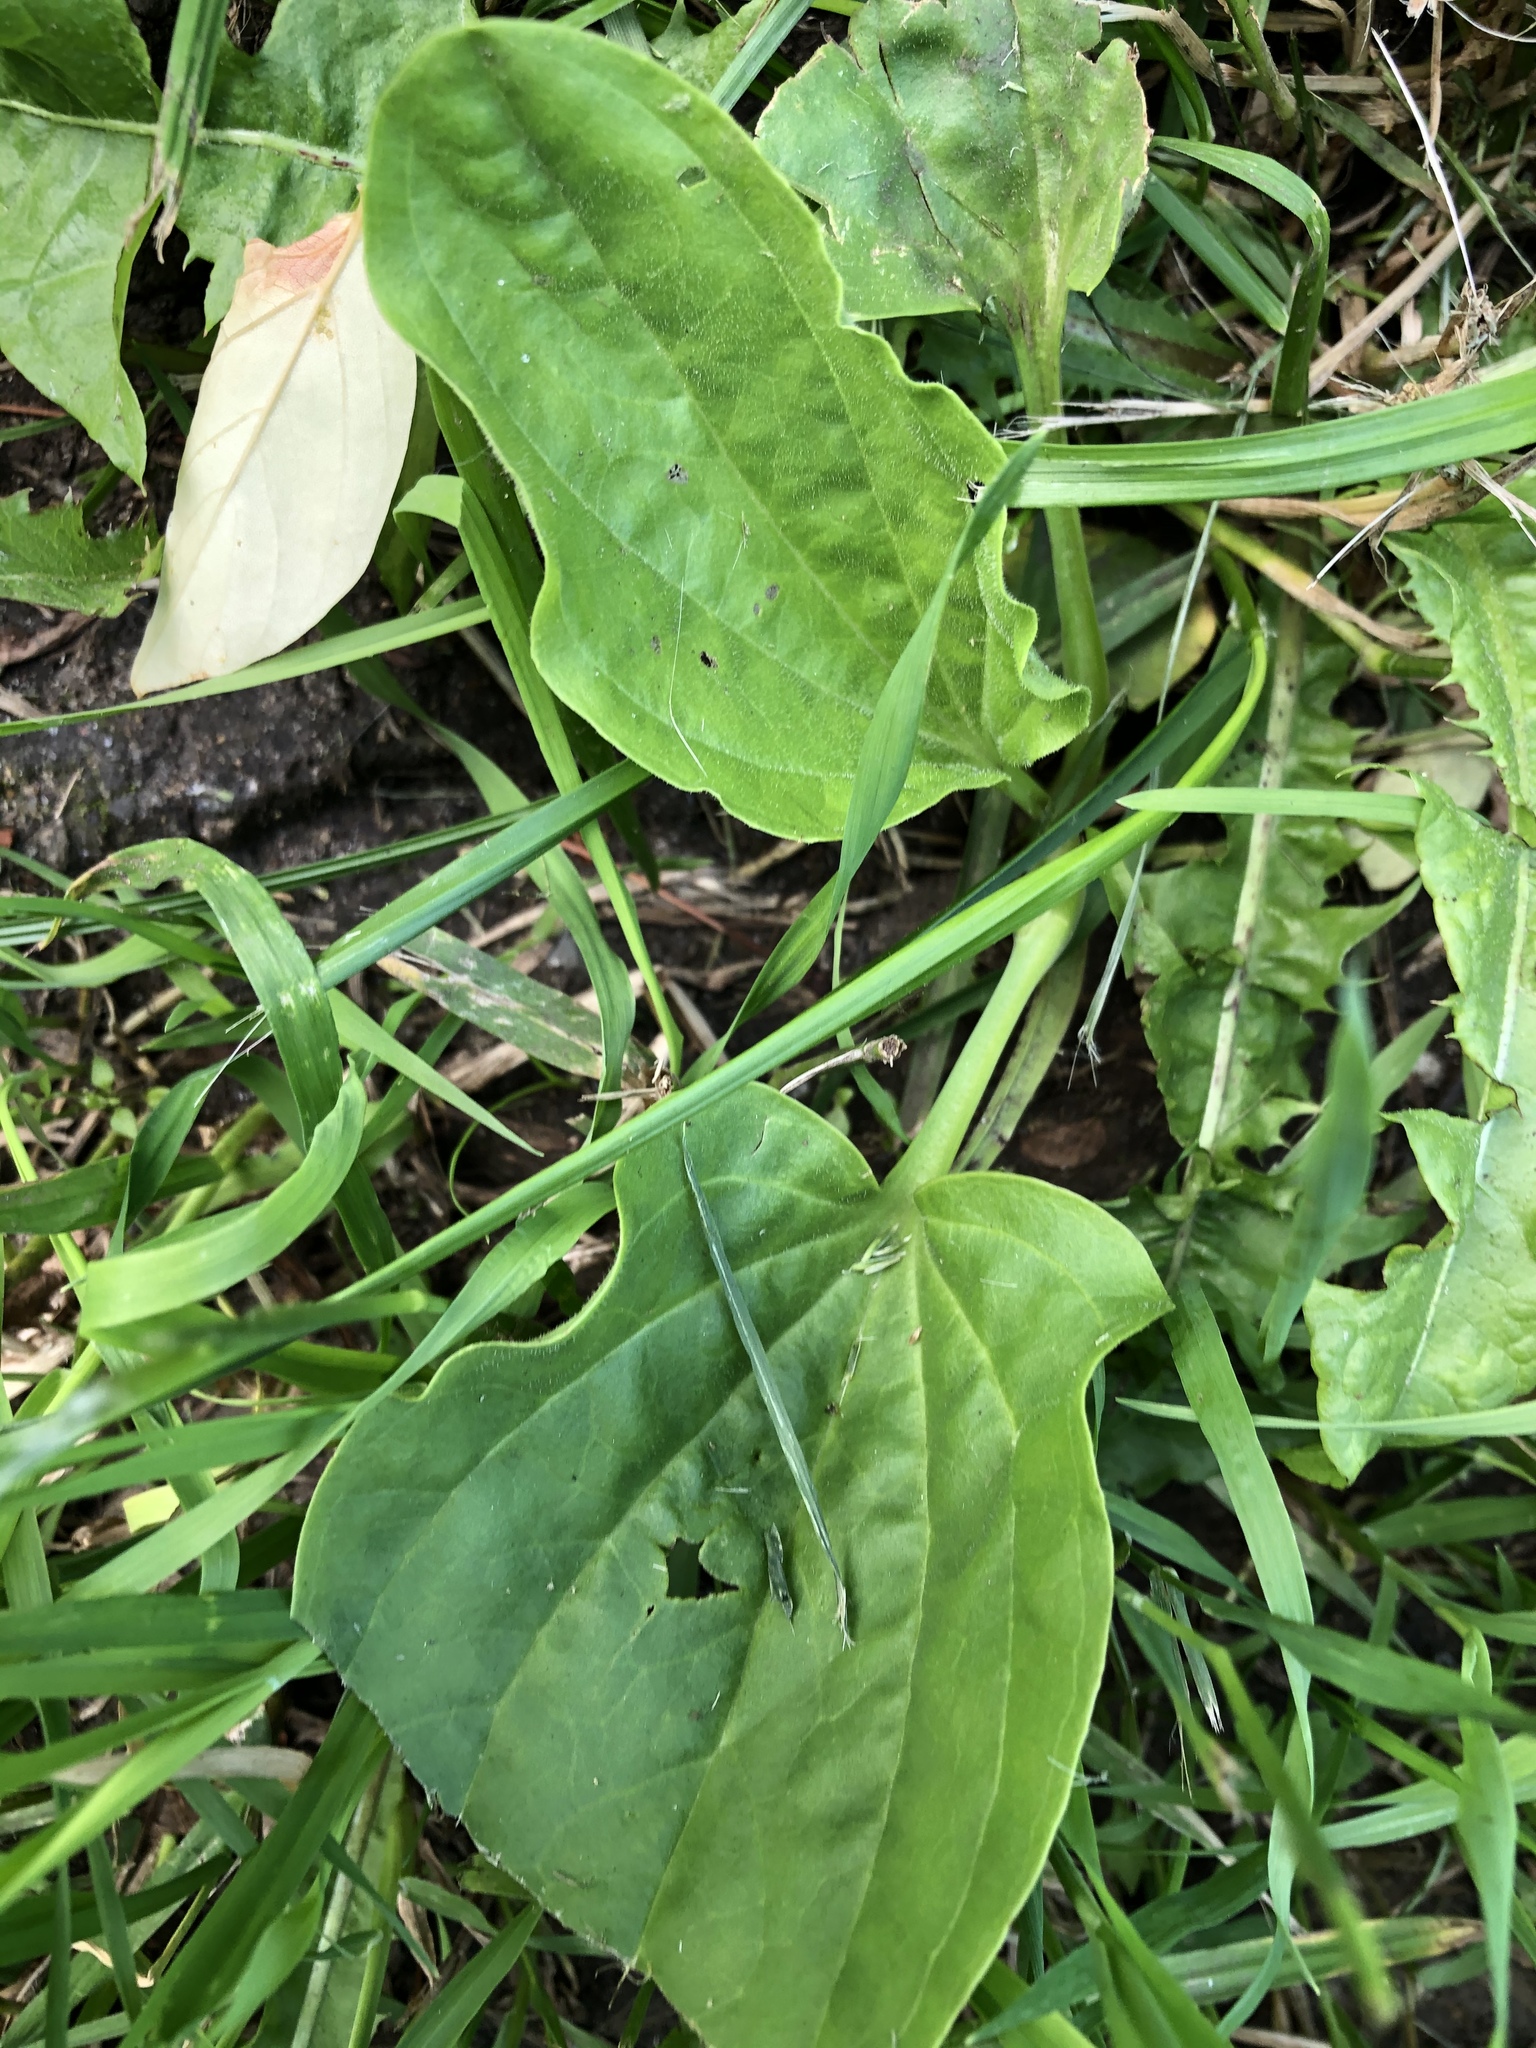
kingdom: Plantae
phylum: Tracheophyta
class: Magnoliopsida
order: Lamiales
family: Plantaginaceae
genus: Plantago
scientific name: Plantago major
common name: Common plantain
